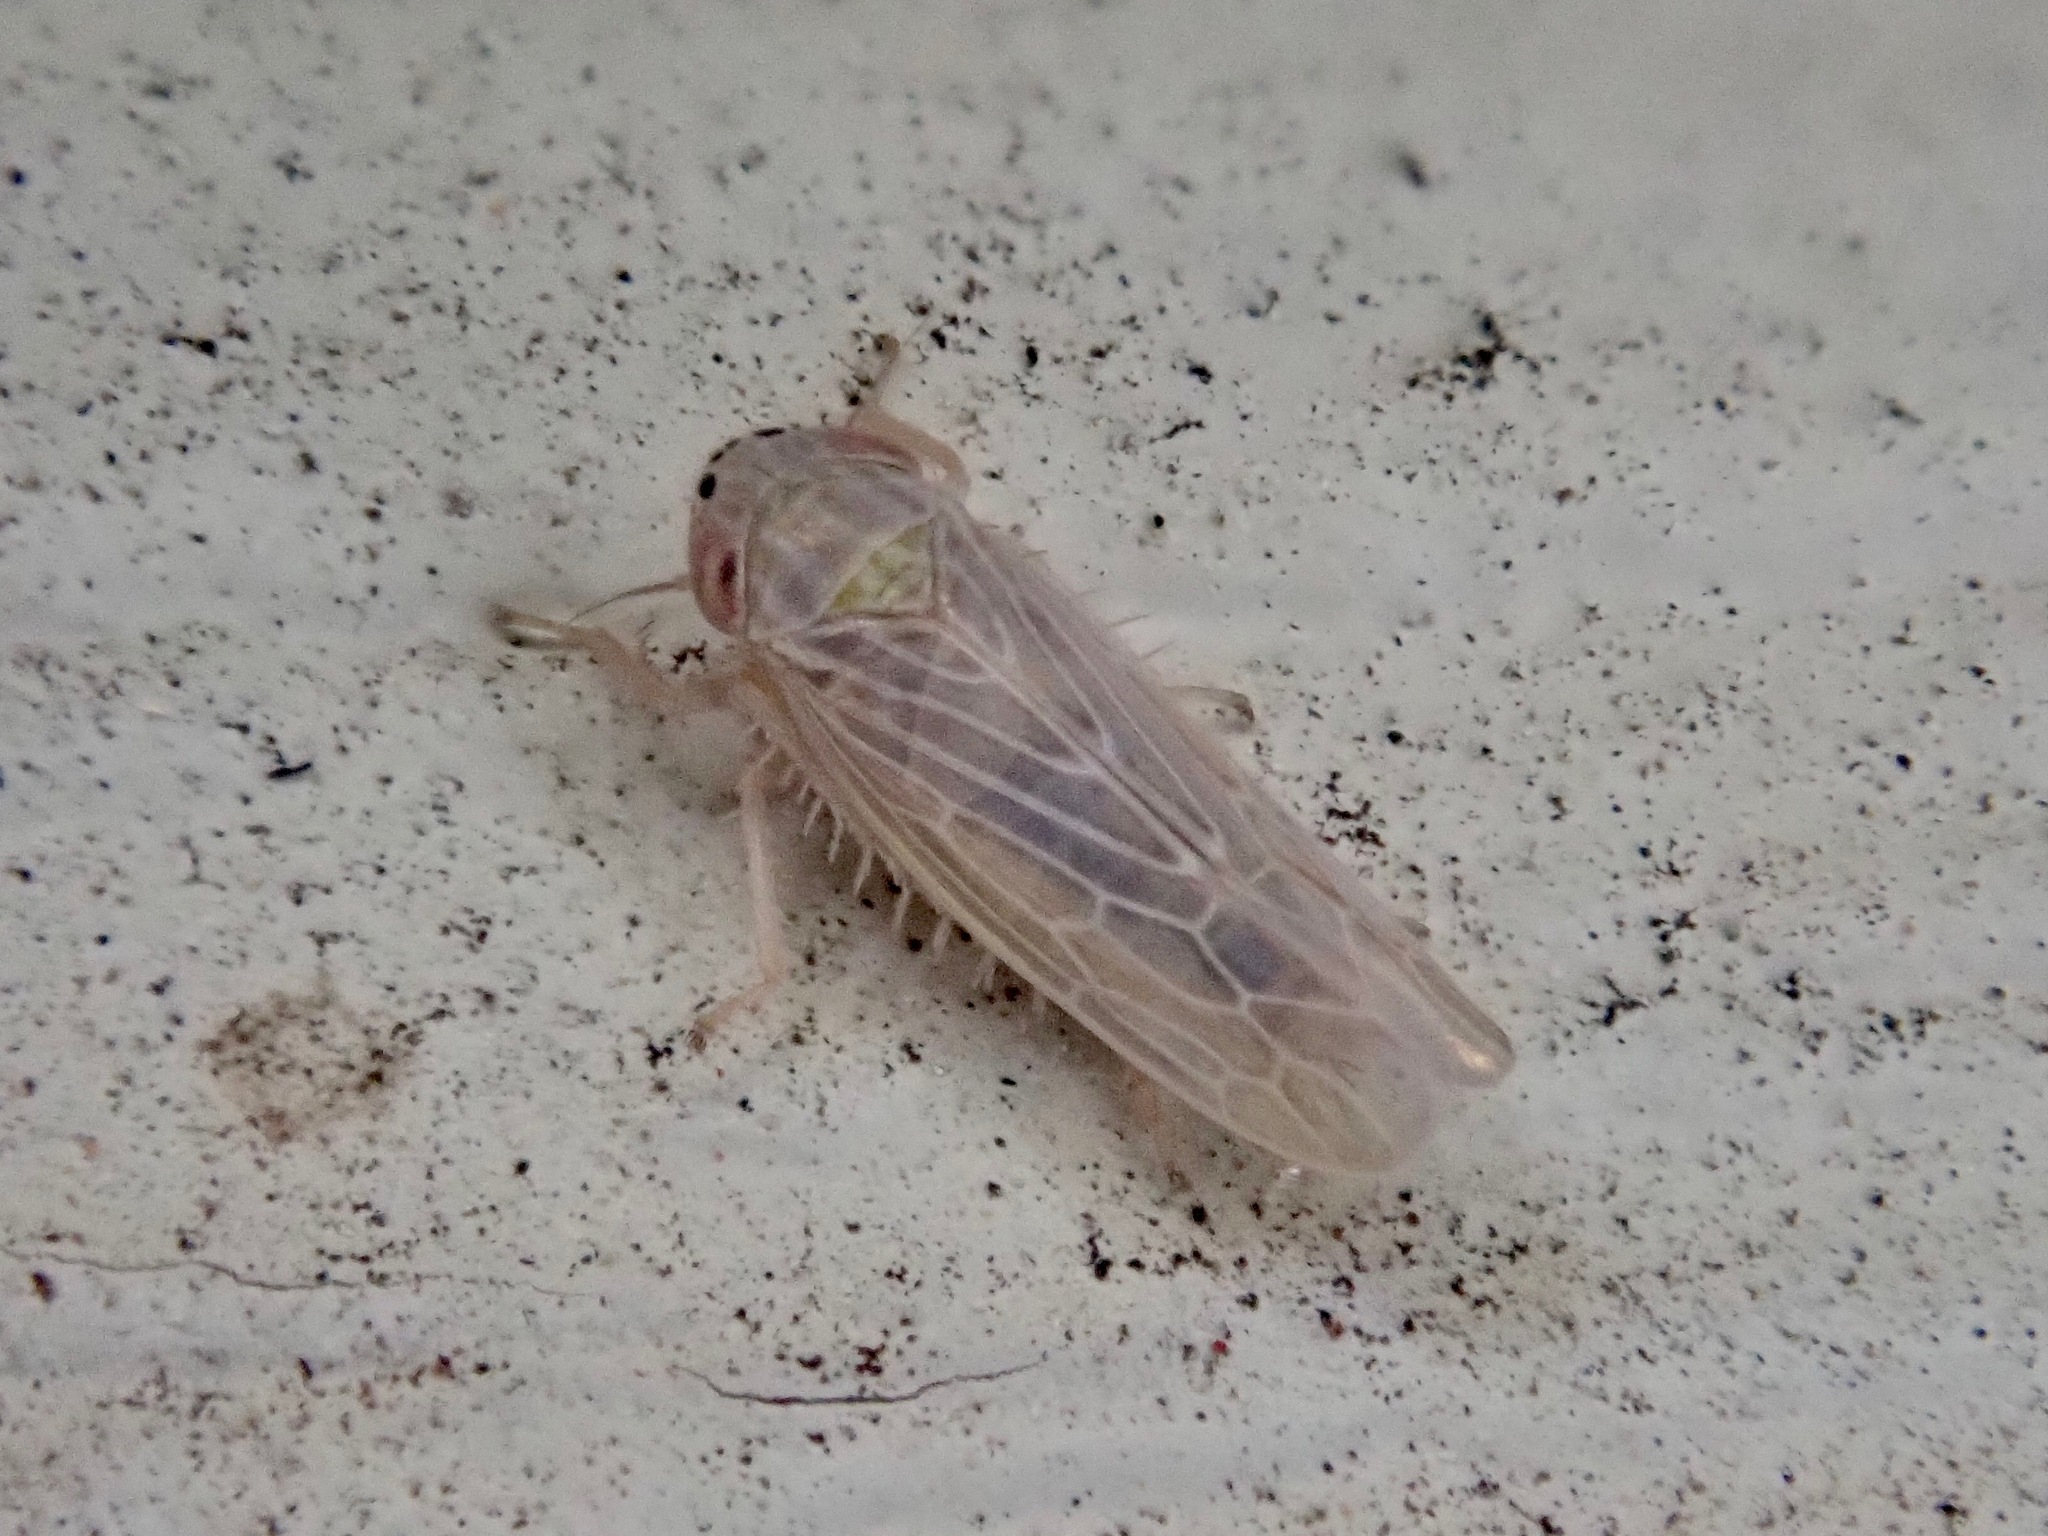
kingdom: Animalia
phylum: Arthropoda
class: Insecta
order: Hemiptera
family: Cicadellidae
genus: Graminella
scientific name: Graminella sonora
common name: Lesser lawn leafhopper
